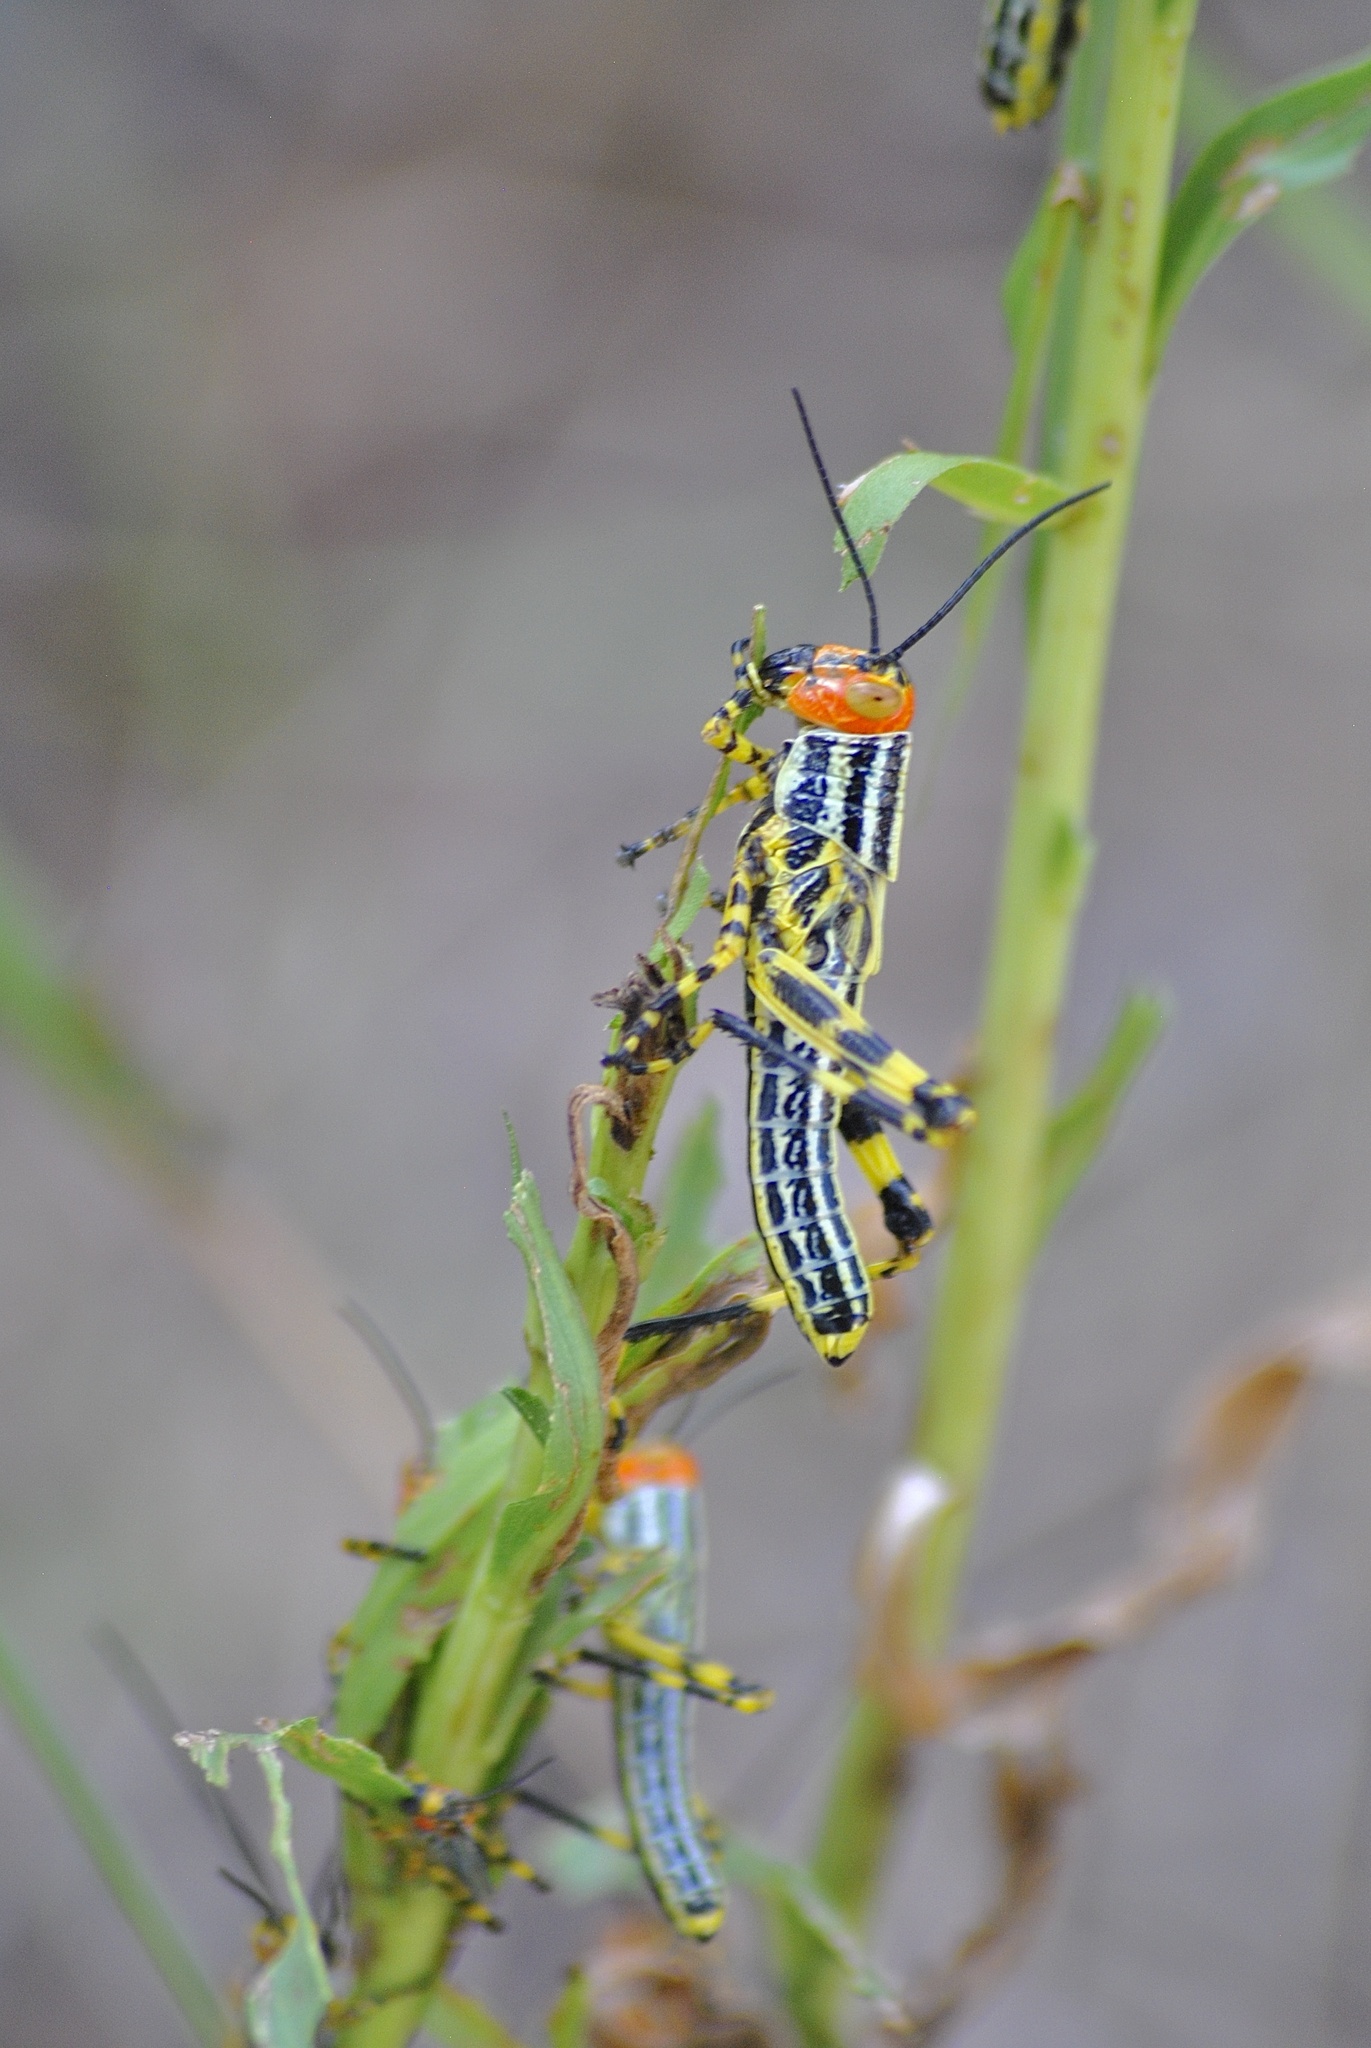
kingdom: Animalia
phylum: Arthropoda
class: Insecta
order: Orthoptera
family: Romaleidae
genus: Zoniopoda
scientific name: Zoniopoda tarsata
